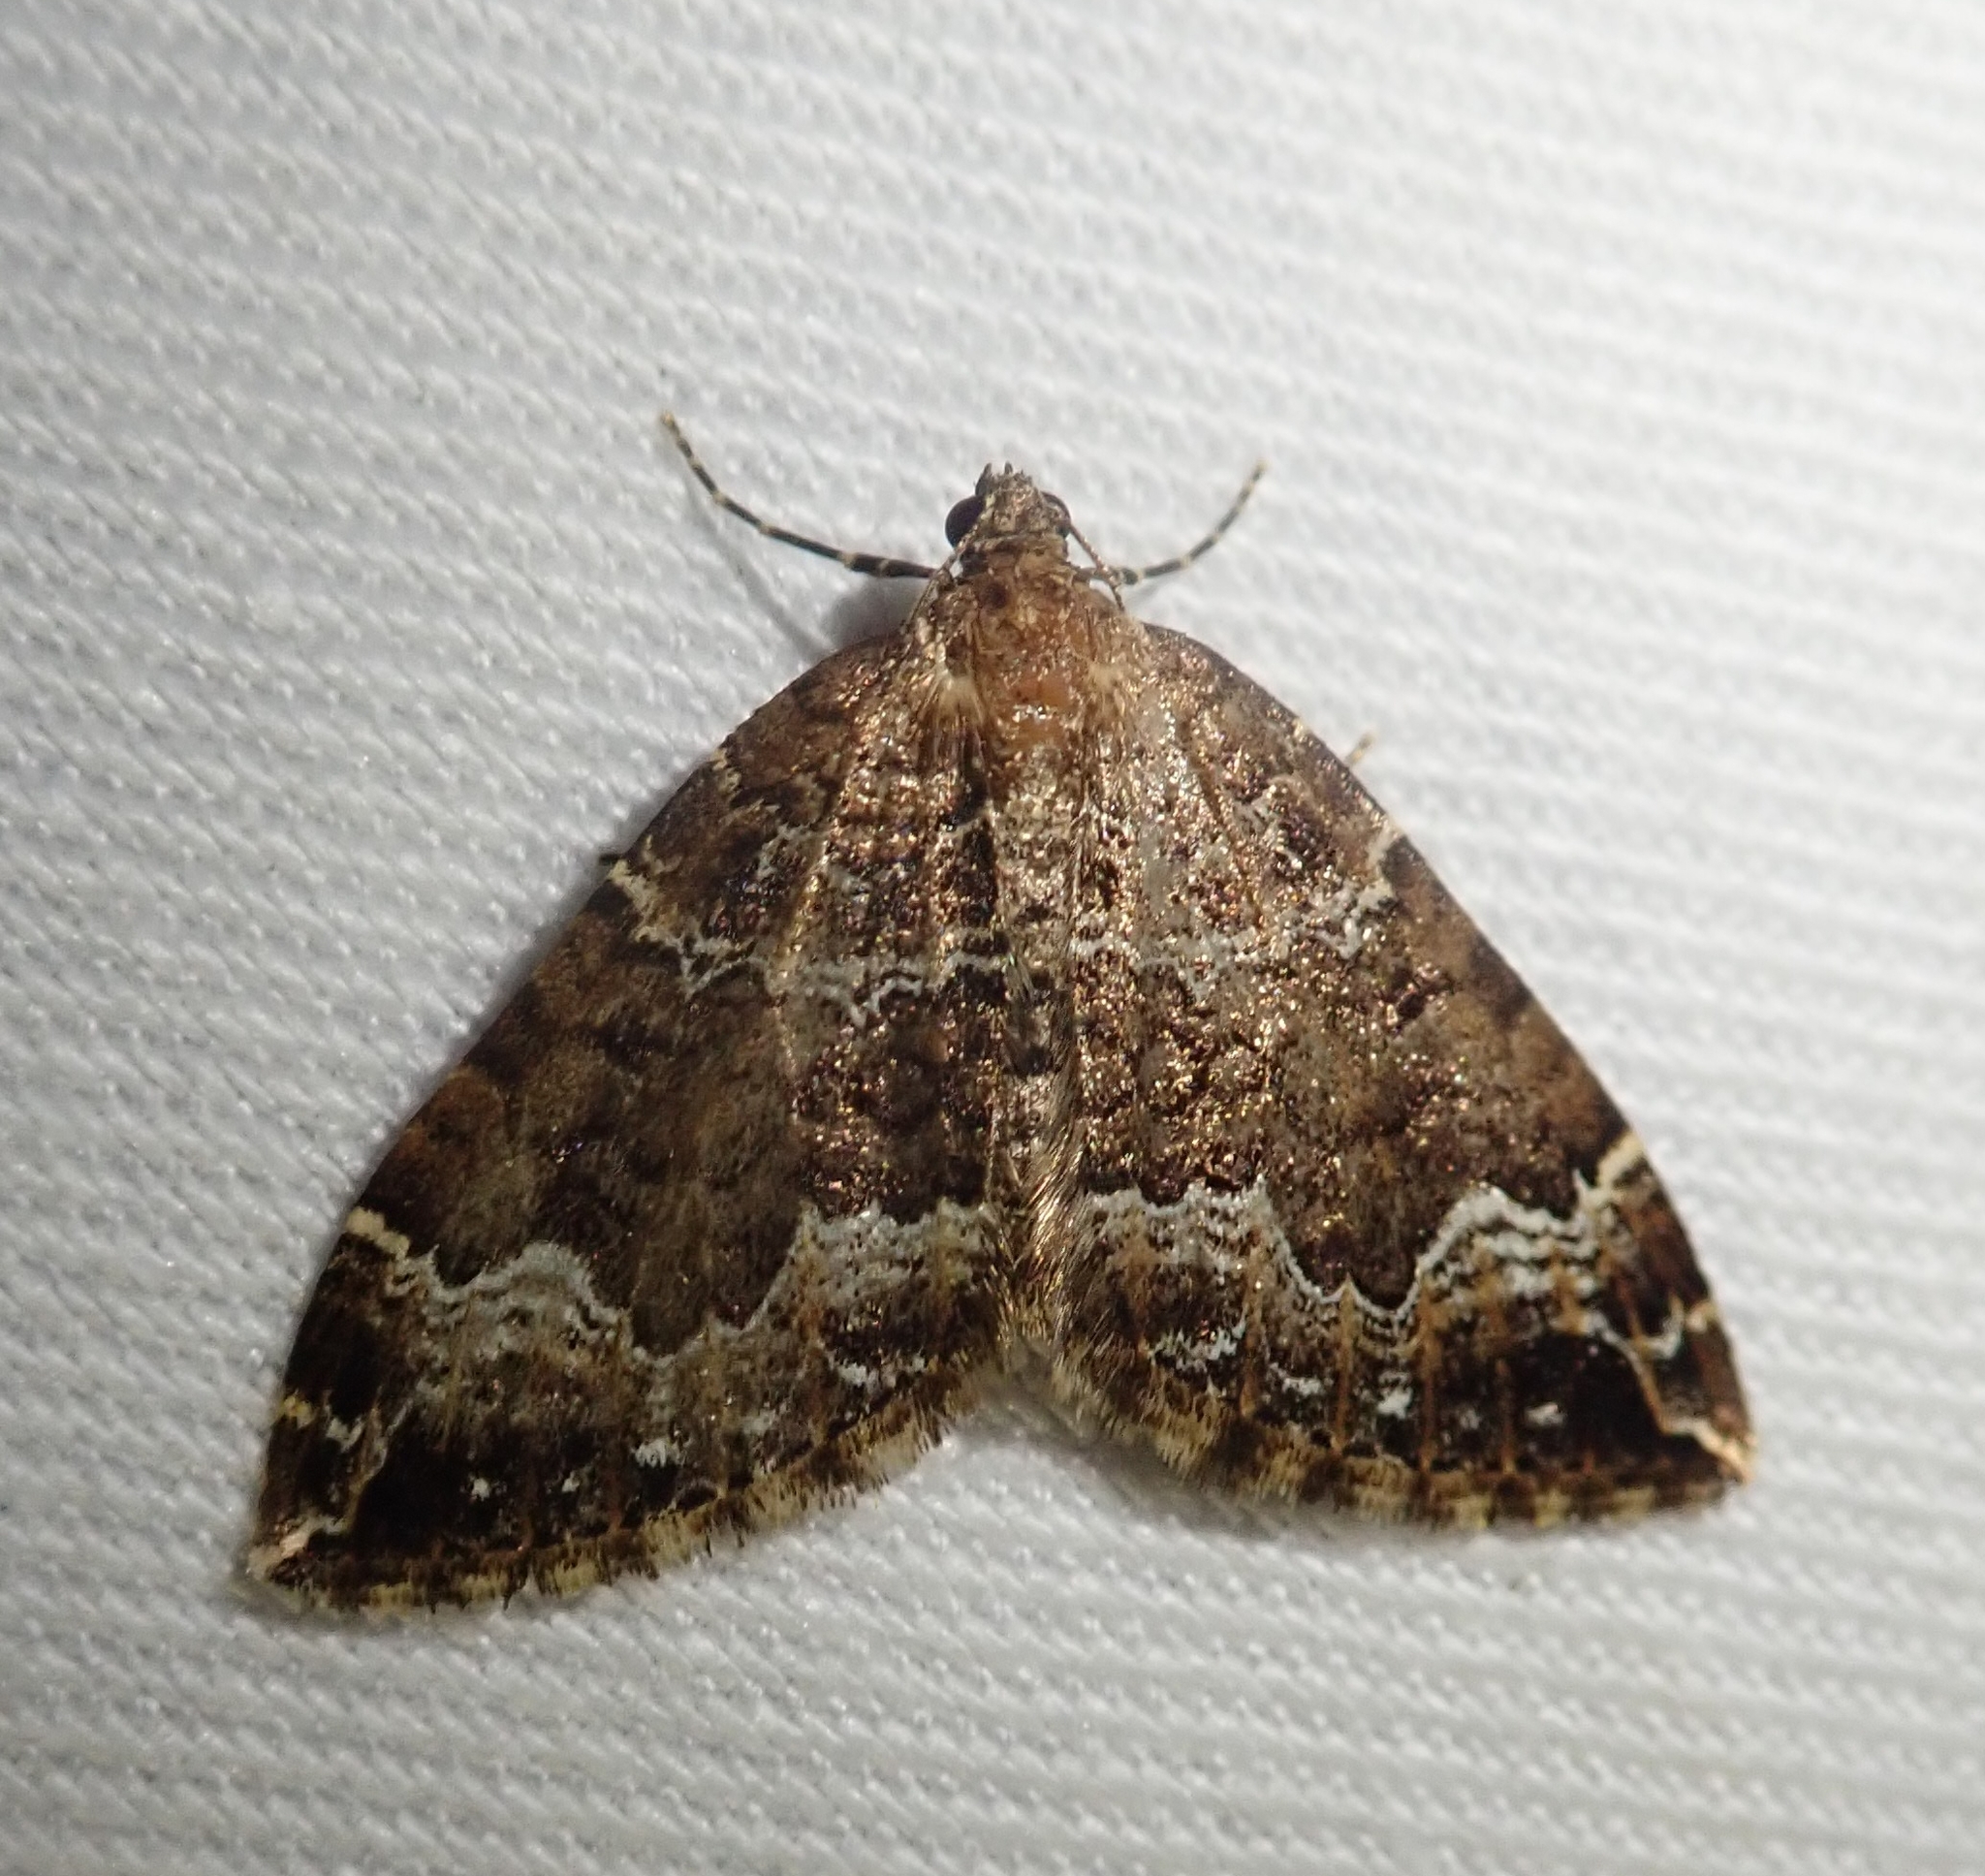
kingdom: Animalia
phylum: Arthropoda
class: Insecta
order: Lepidoptera
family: Geometridae
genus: Lampropteryx
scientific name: Lampropteryx suffumata
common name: Water carpet
